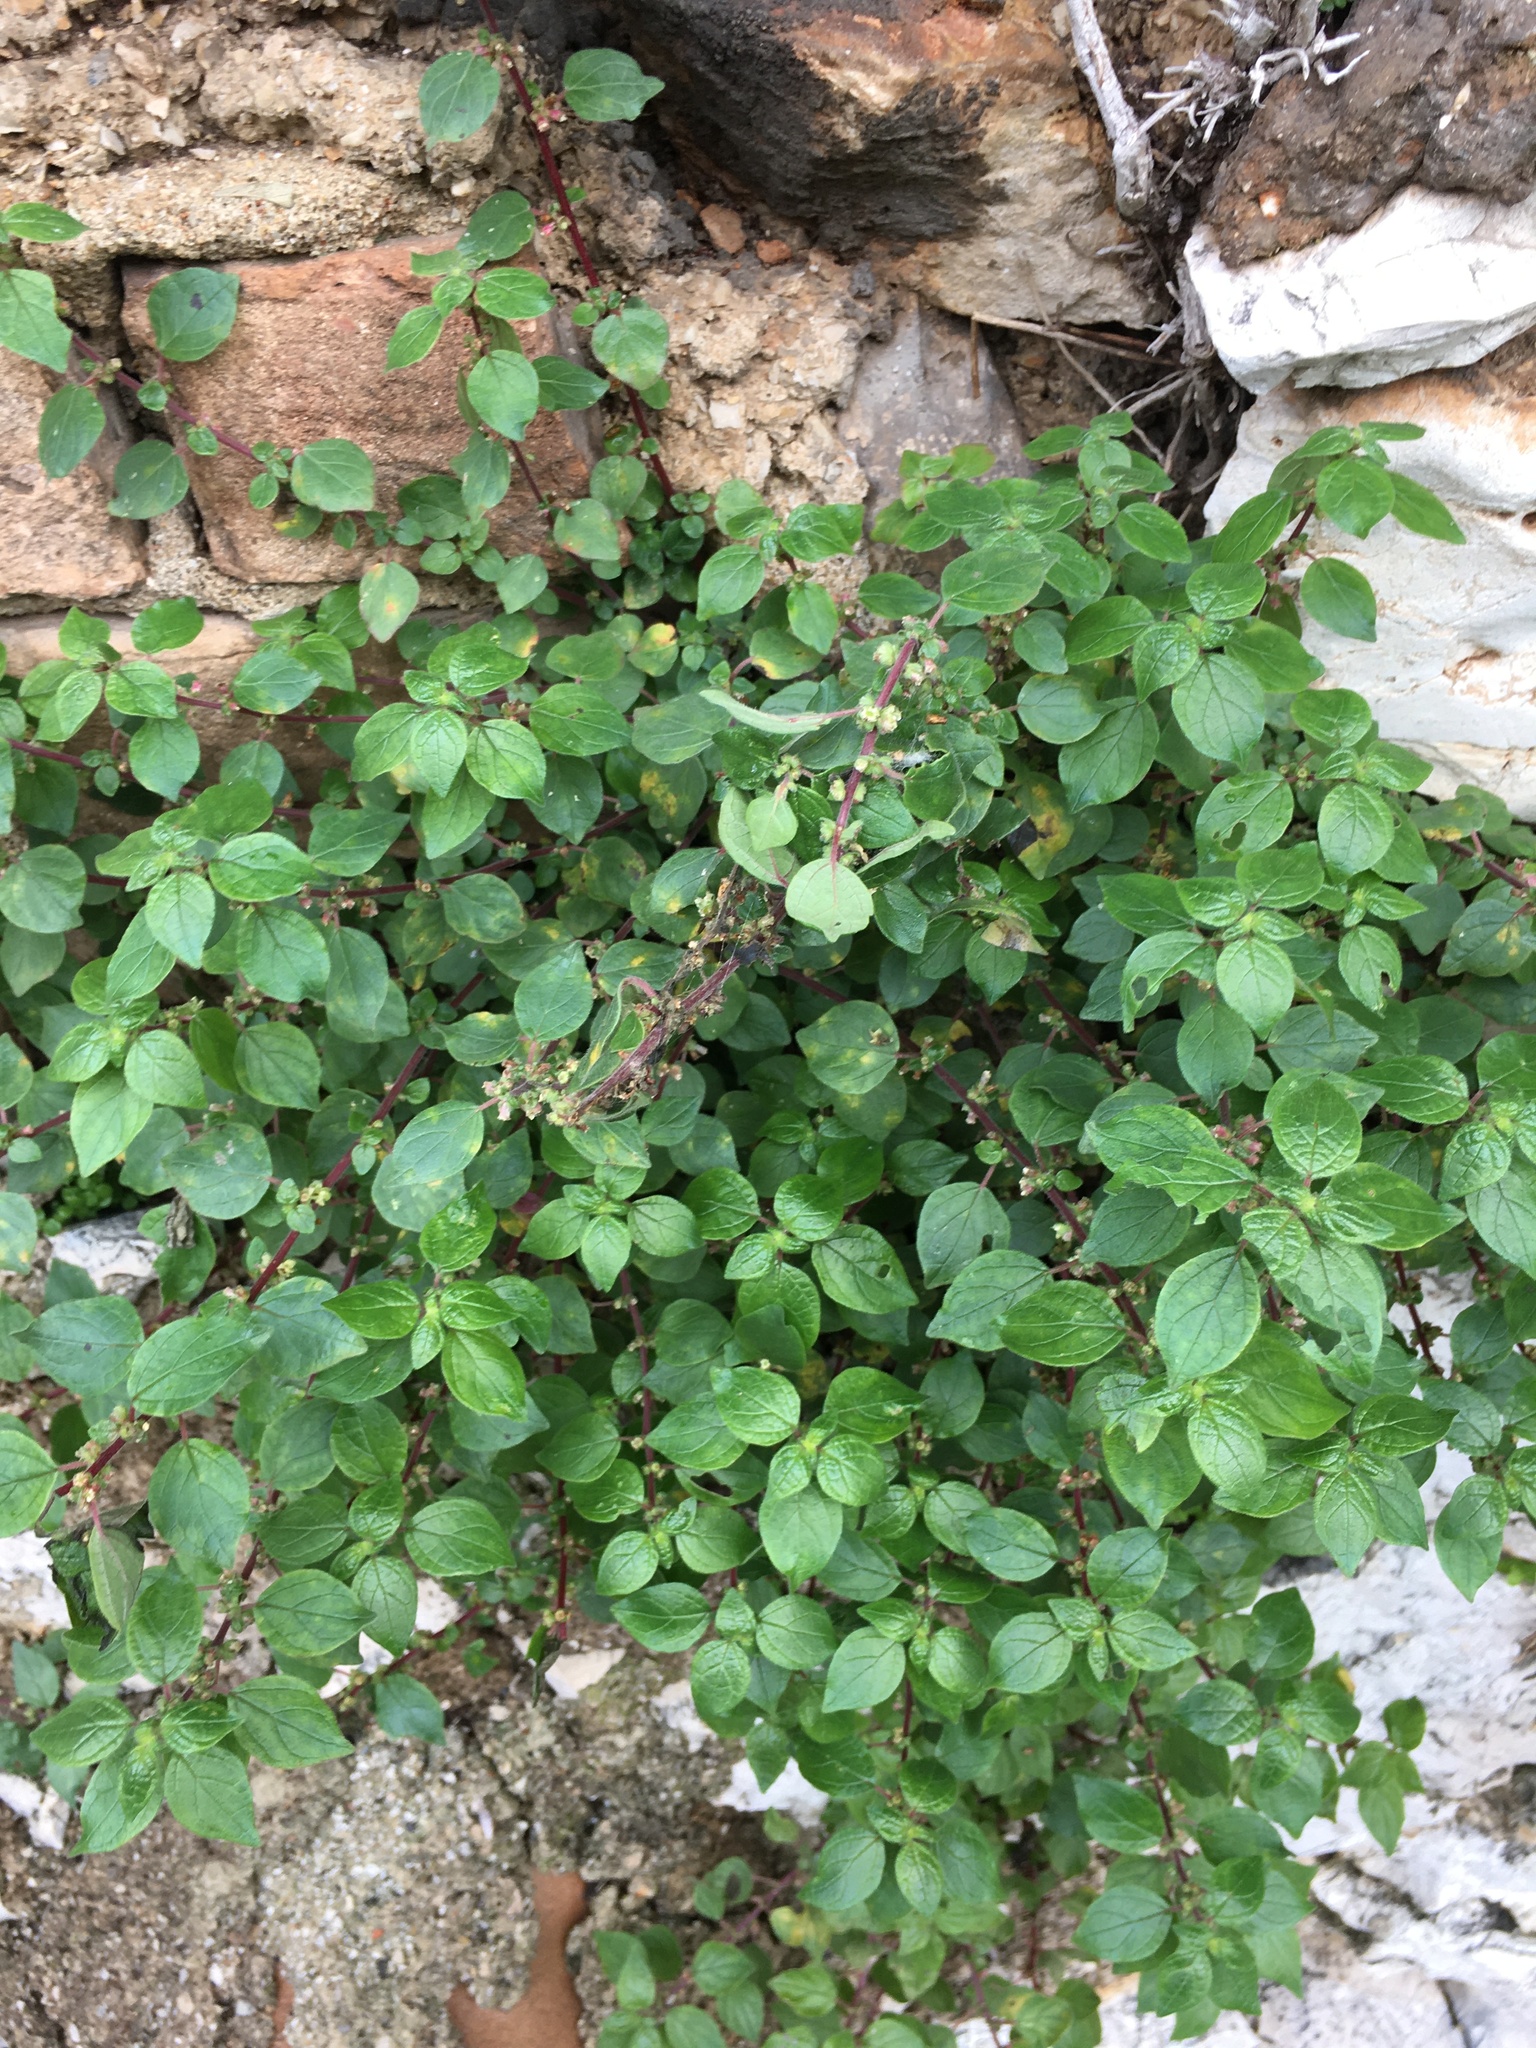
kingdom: Plantae
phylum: Tracheophyta
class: Magnoliopsida
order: Rosales
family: Urticaceae
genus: Parietaria
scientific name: Parietaria judaica
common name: Pellitory-of-the-wall
